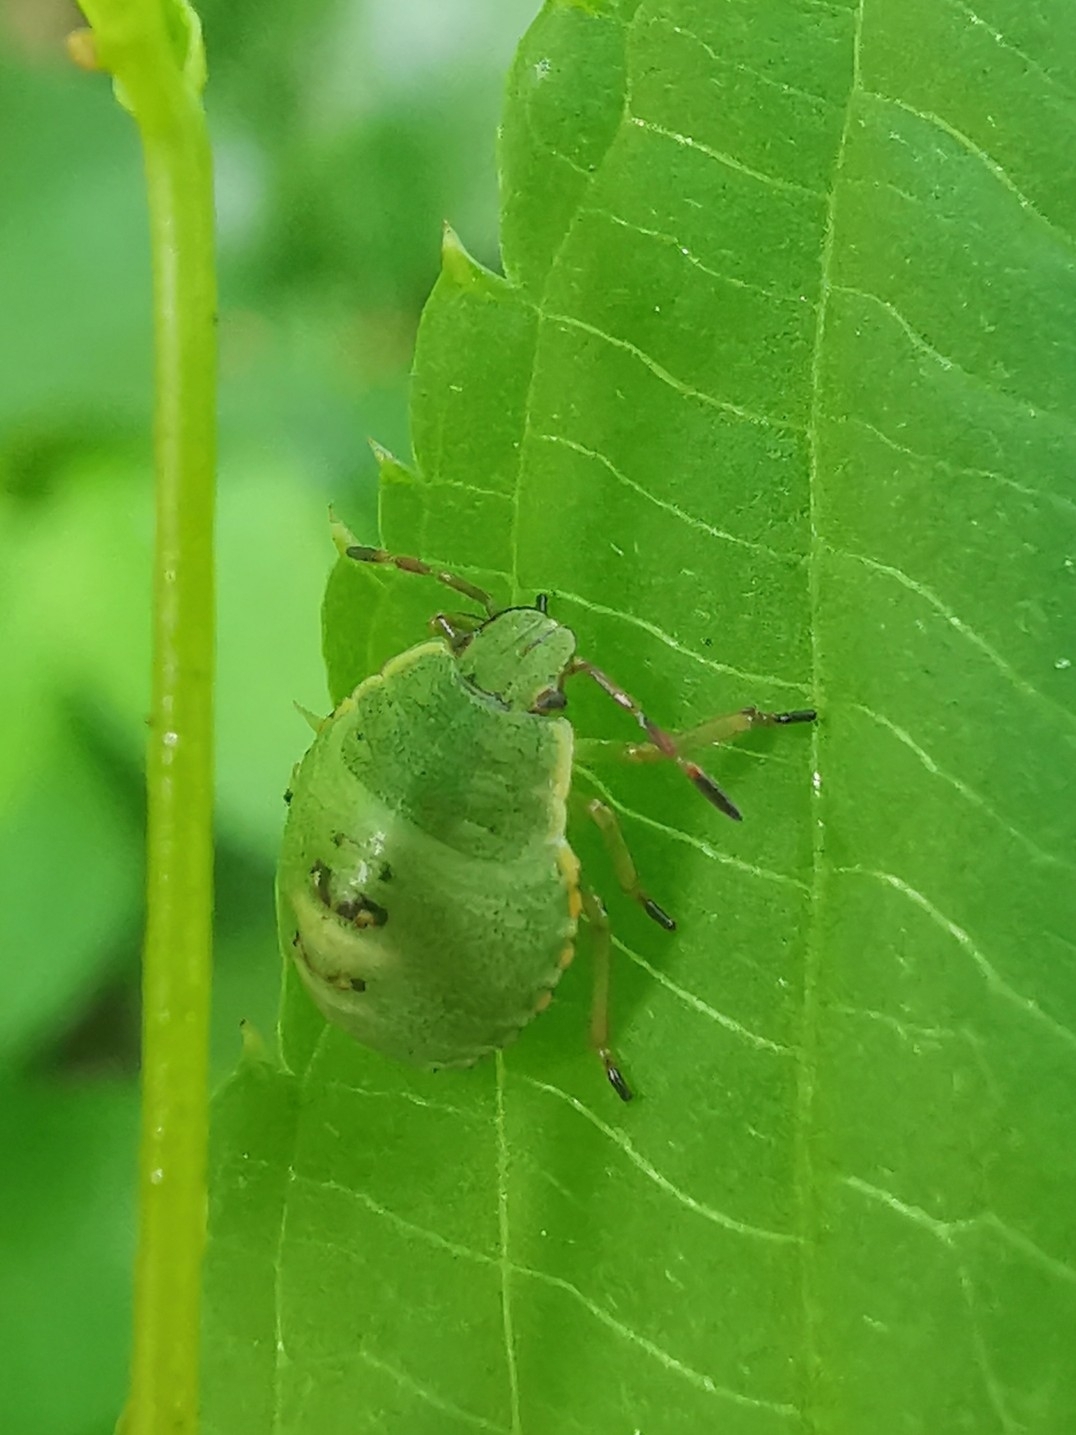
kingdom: Animalia
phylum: Arthropoda
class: Insecta
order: Hemiptera
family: Pentatomidae
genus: Palomena
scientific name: Palomena prasina
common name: Green shieldbug
